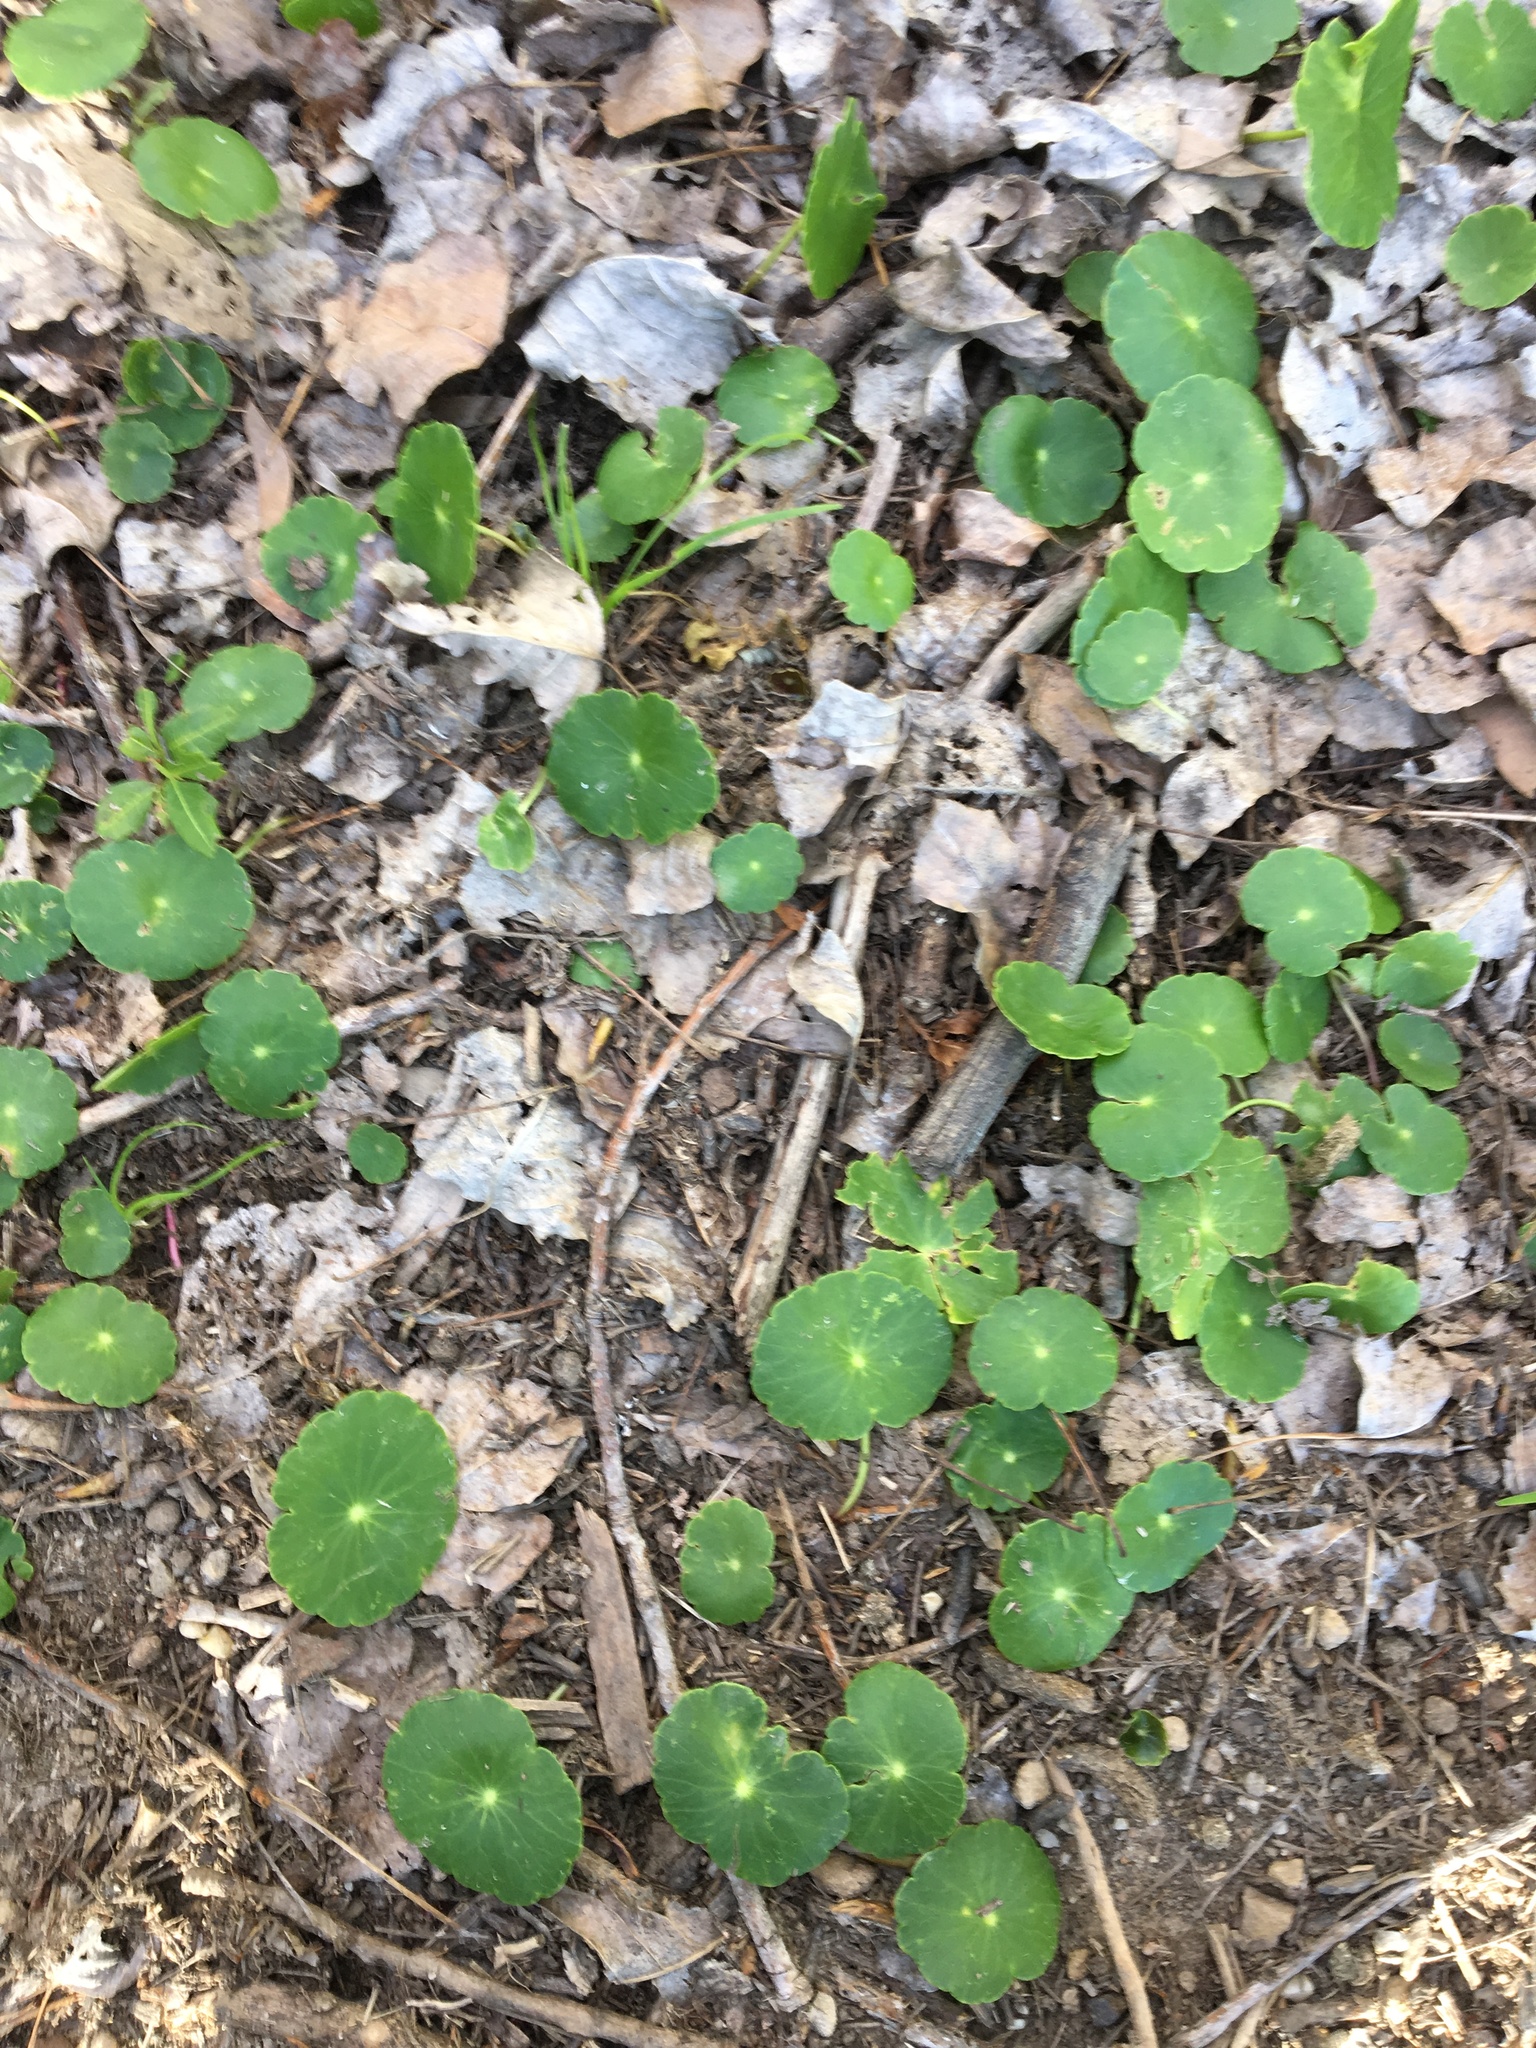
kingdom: Plantae
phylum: Tracheophyta
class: Magnoliopsida
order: Apiales
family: Araliaceae
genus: Hydrocotyle
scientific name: Hydrocotyle bonariensis
